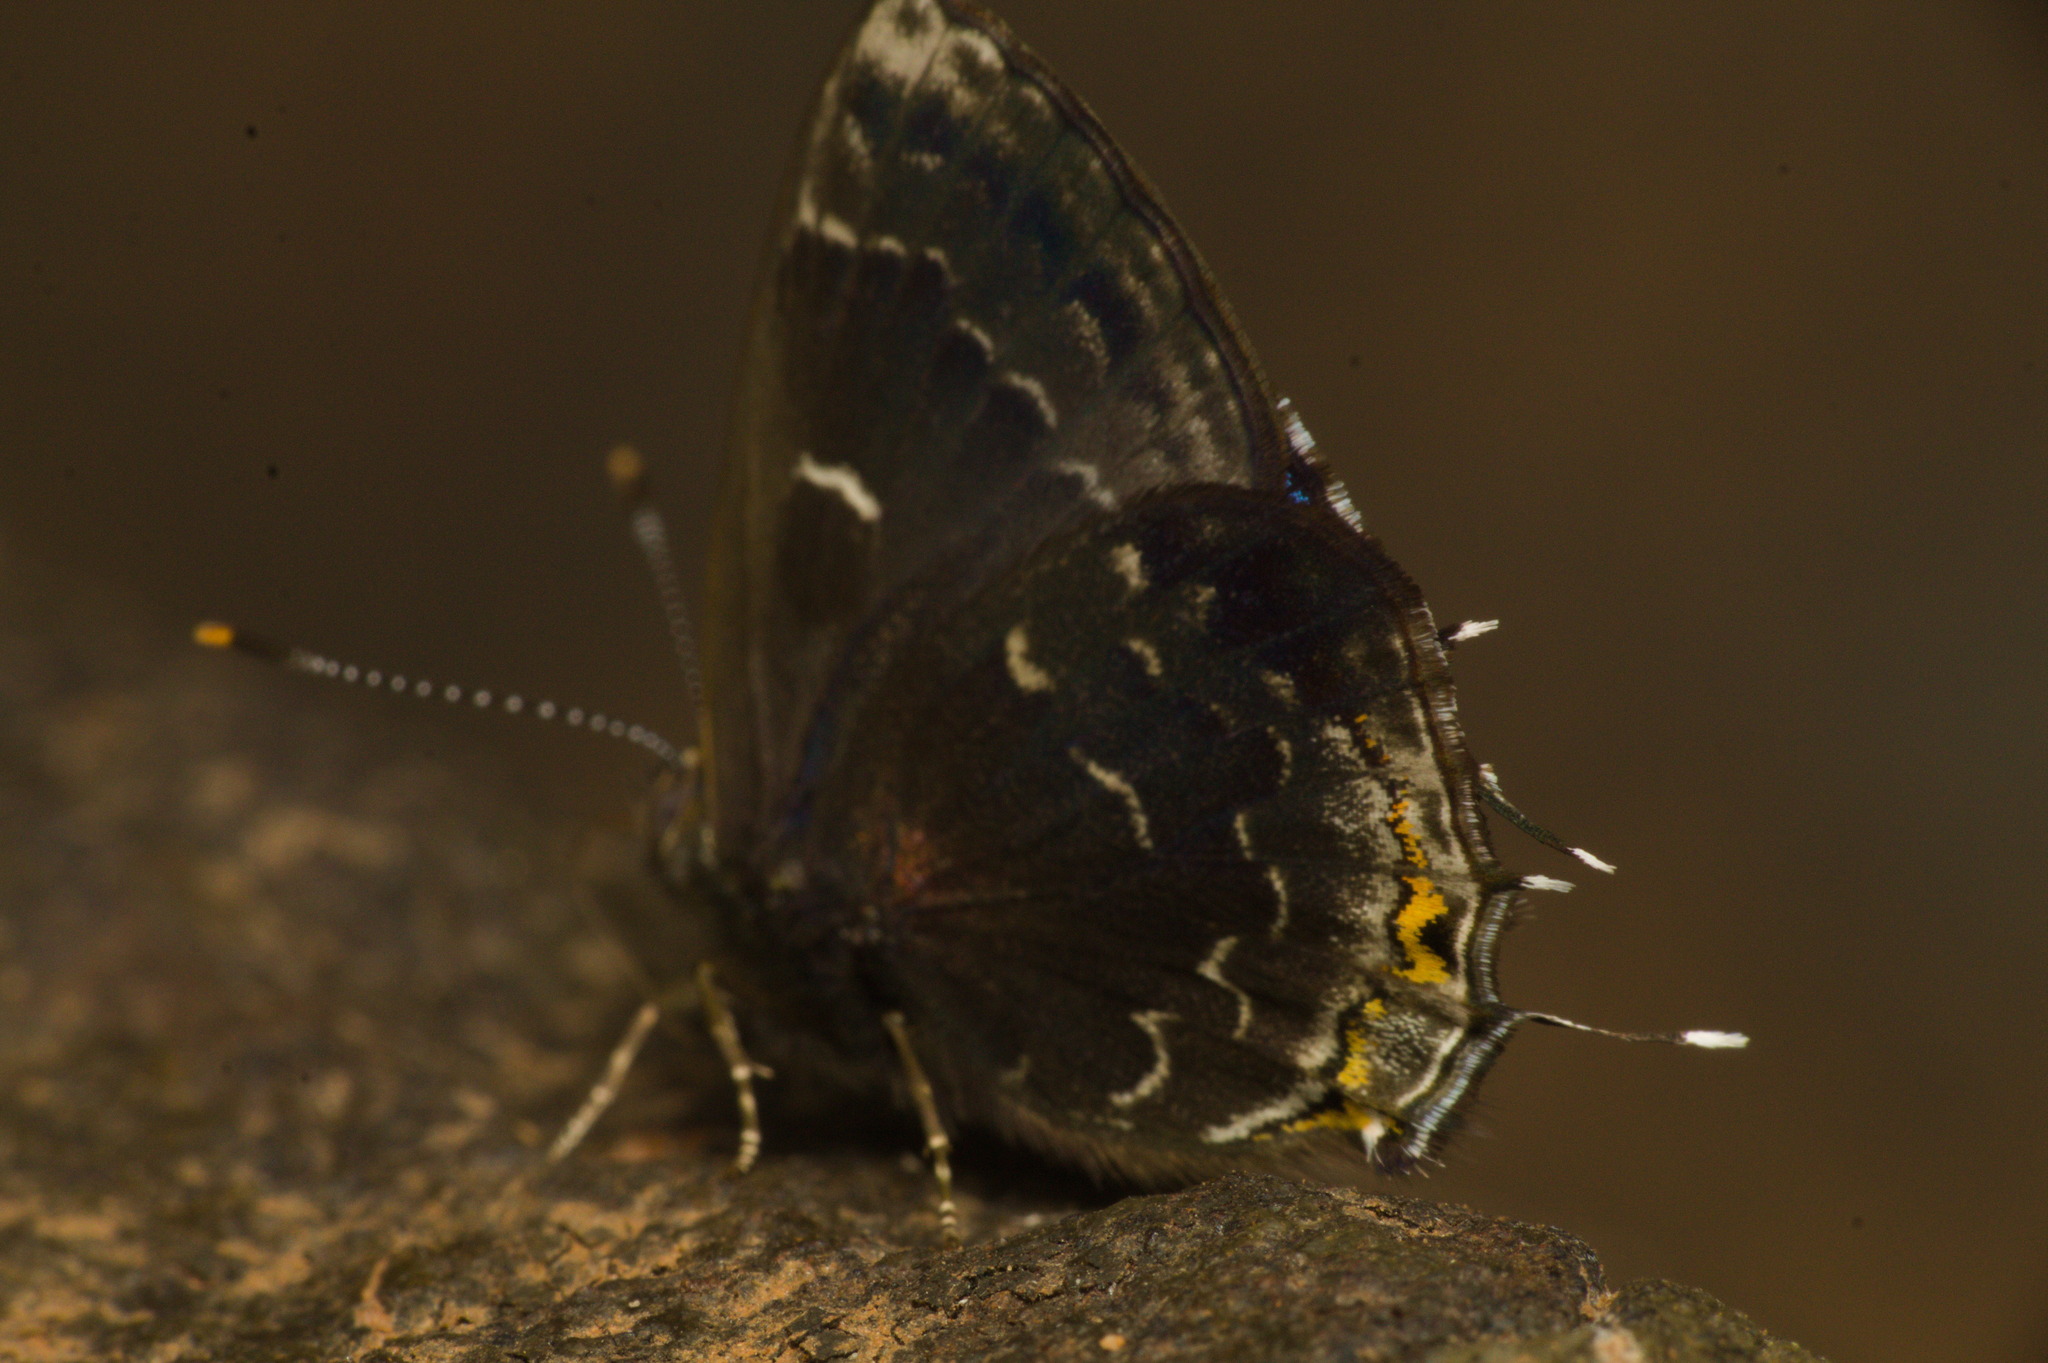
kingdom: Animalia
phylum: Arthropoda
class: Insecta
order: Lepidoptera
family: Lycaenidae
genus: Ocaria
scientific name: Ocaria ocrisia
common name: Black hairstreak
